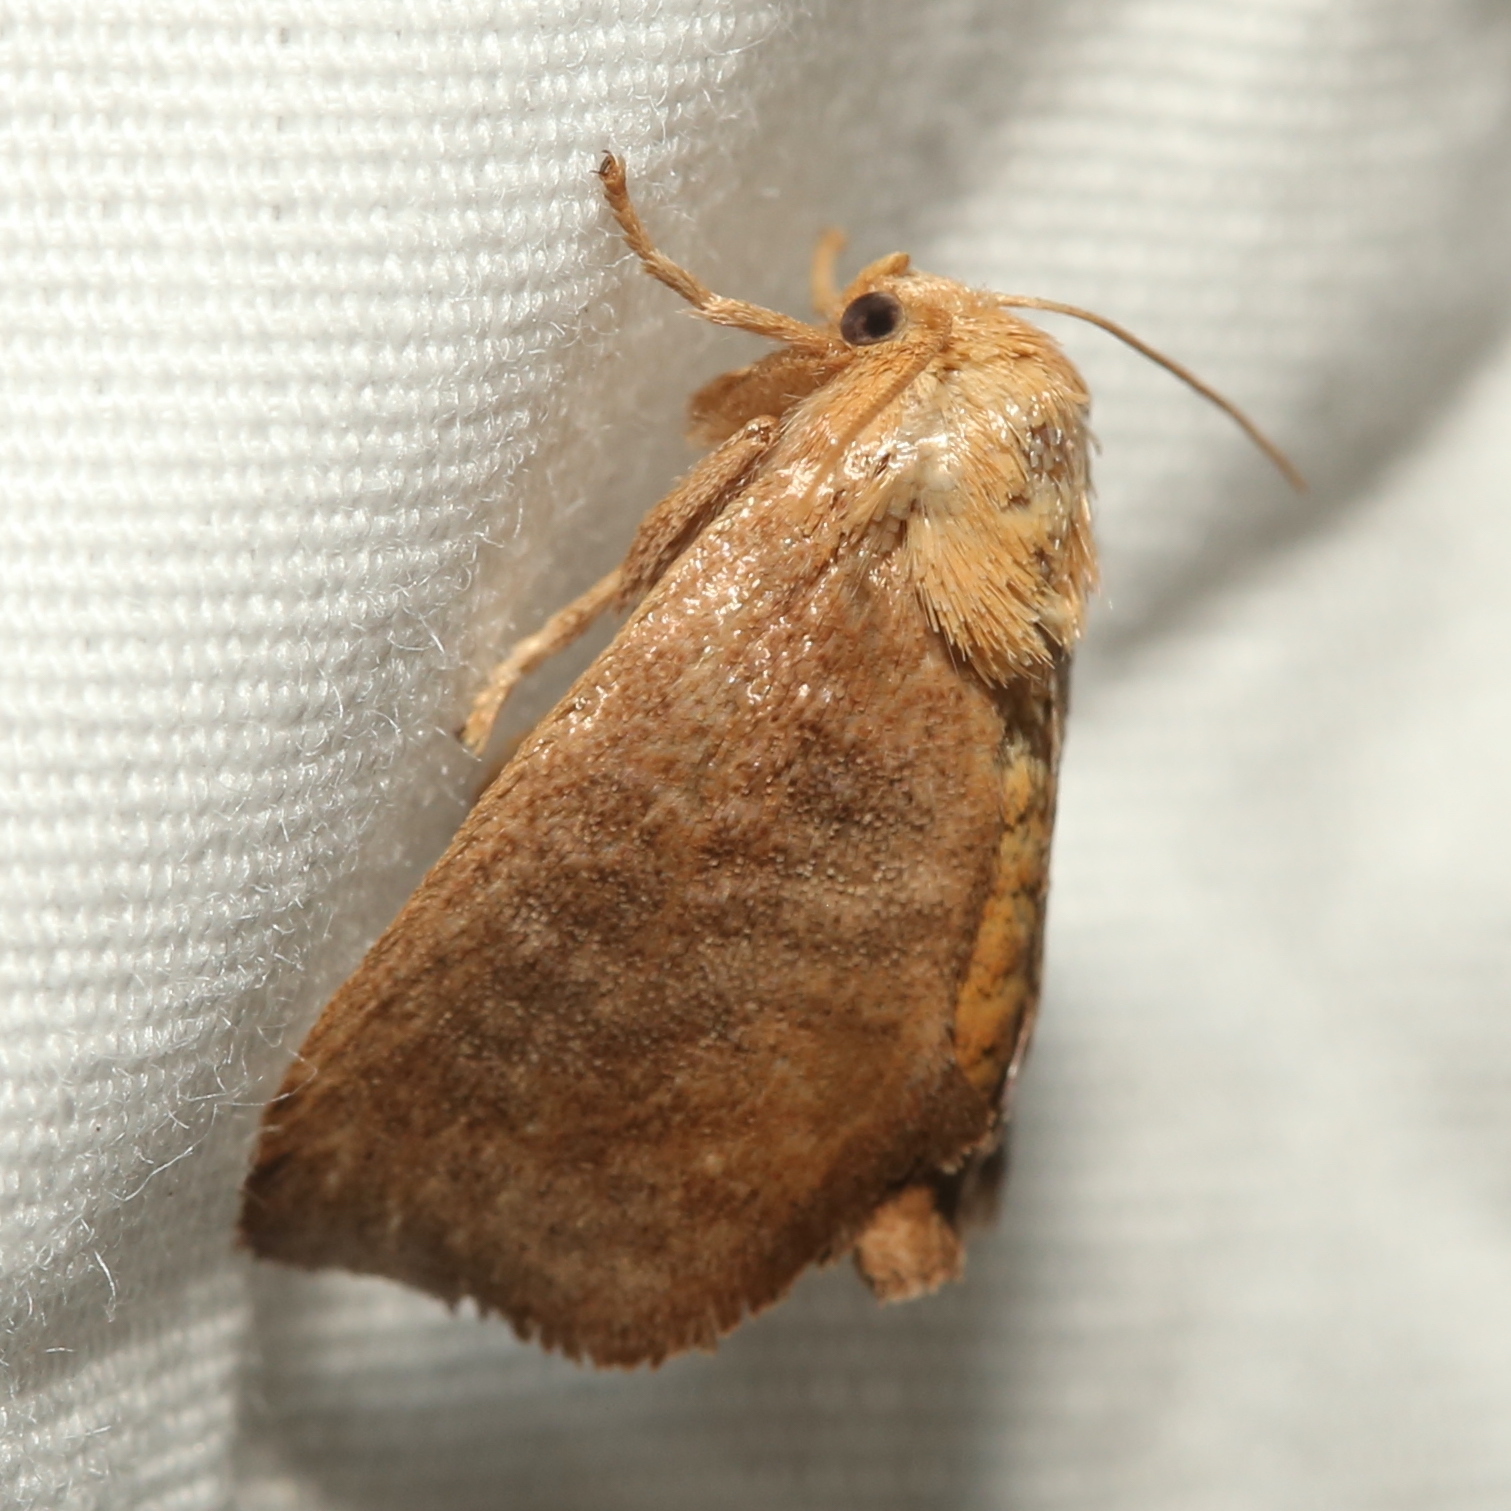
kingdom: Animalia
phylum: Arthropoda
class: Insecta
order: Lepidoptera
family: Limacodidae
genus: Isa
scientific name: Isa textula
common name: Crowned slug moth
